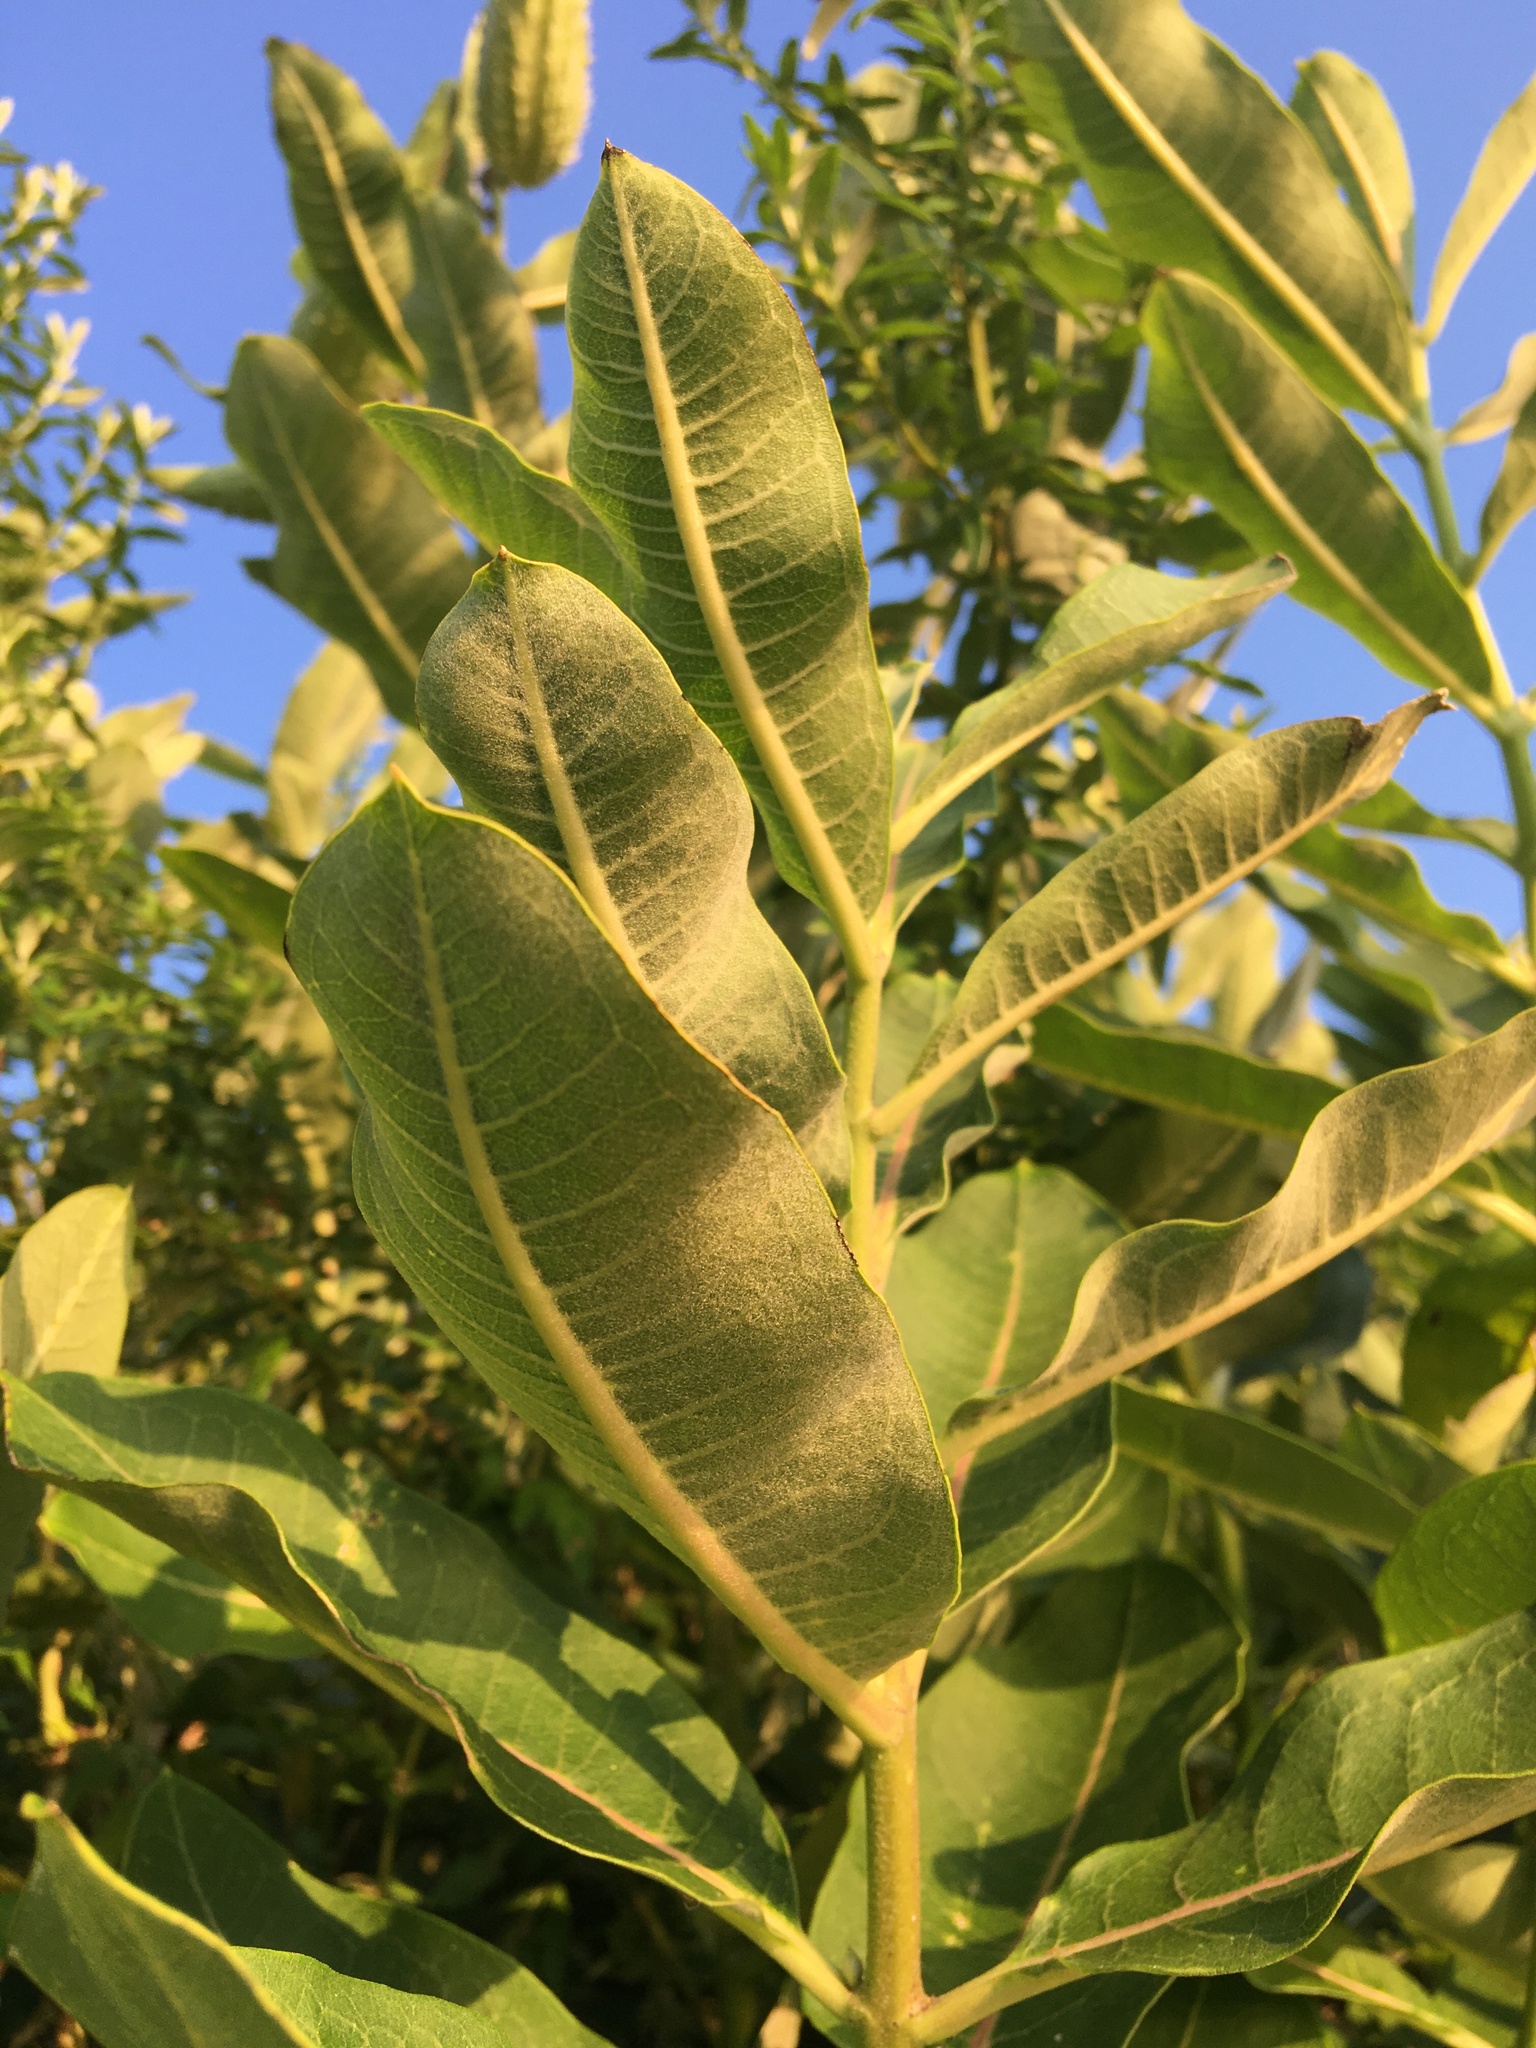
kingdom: Plantae
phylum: Tracheophyta
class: Magnoliopsida
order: Gentianales
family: Apocynaceae
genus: Asclepias
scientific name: Asclepias syriaca
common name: Common milkweed
